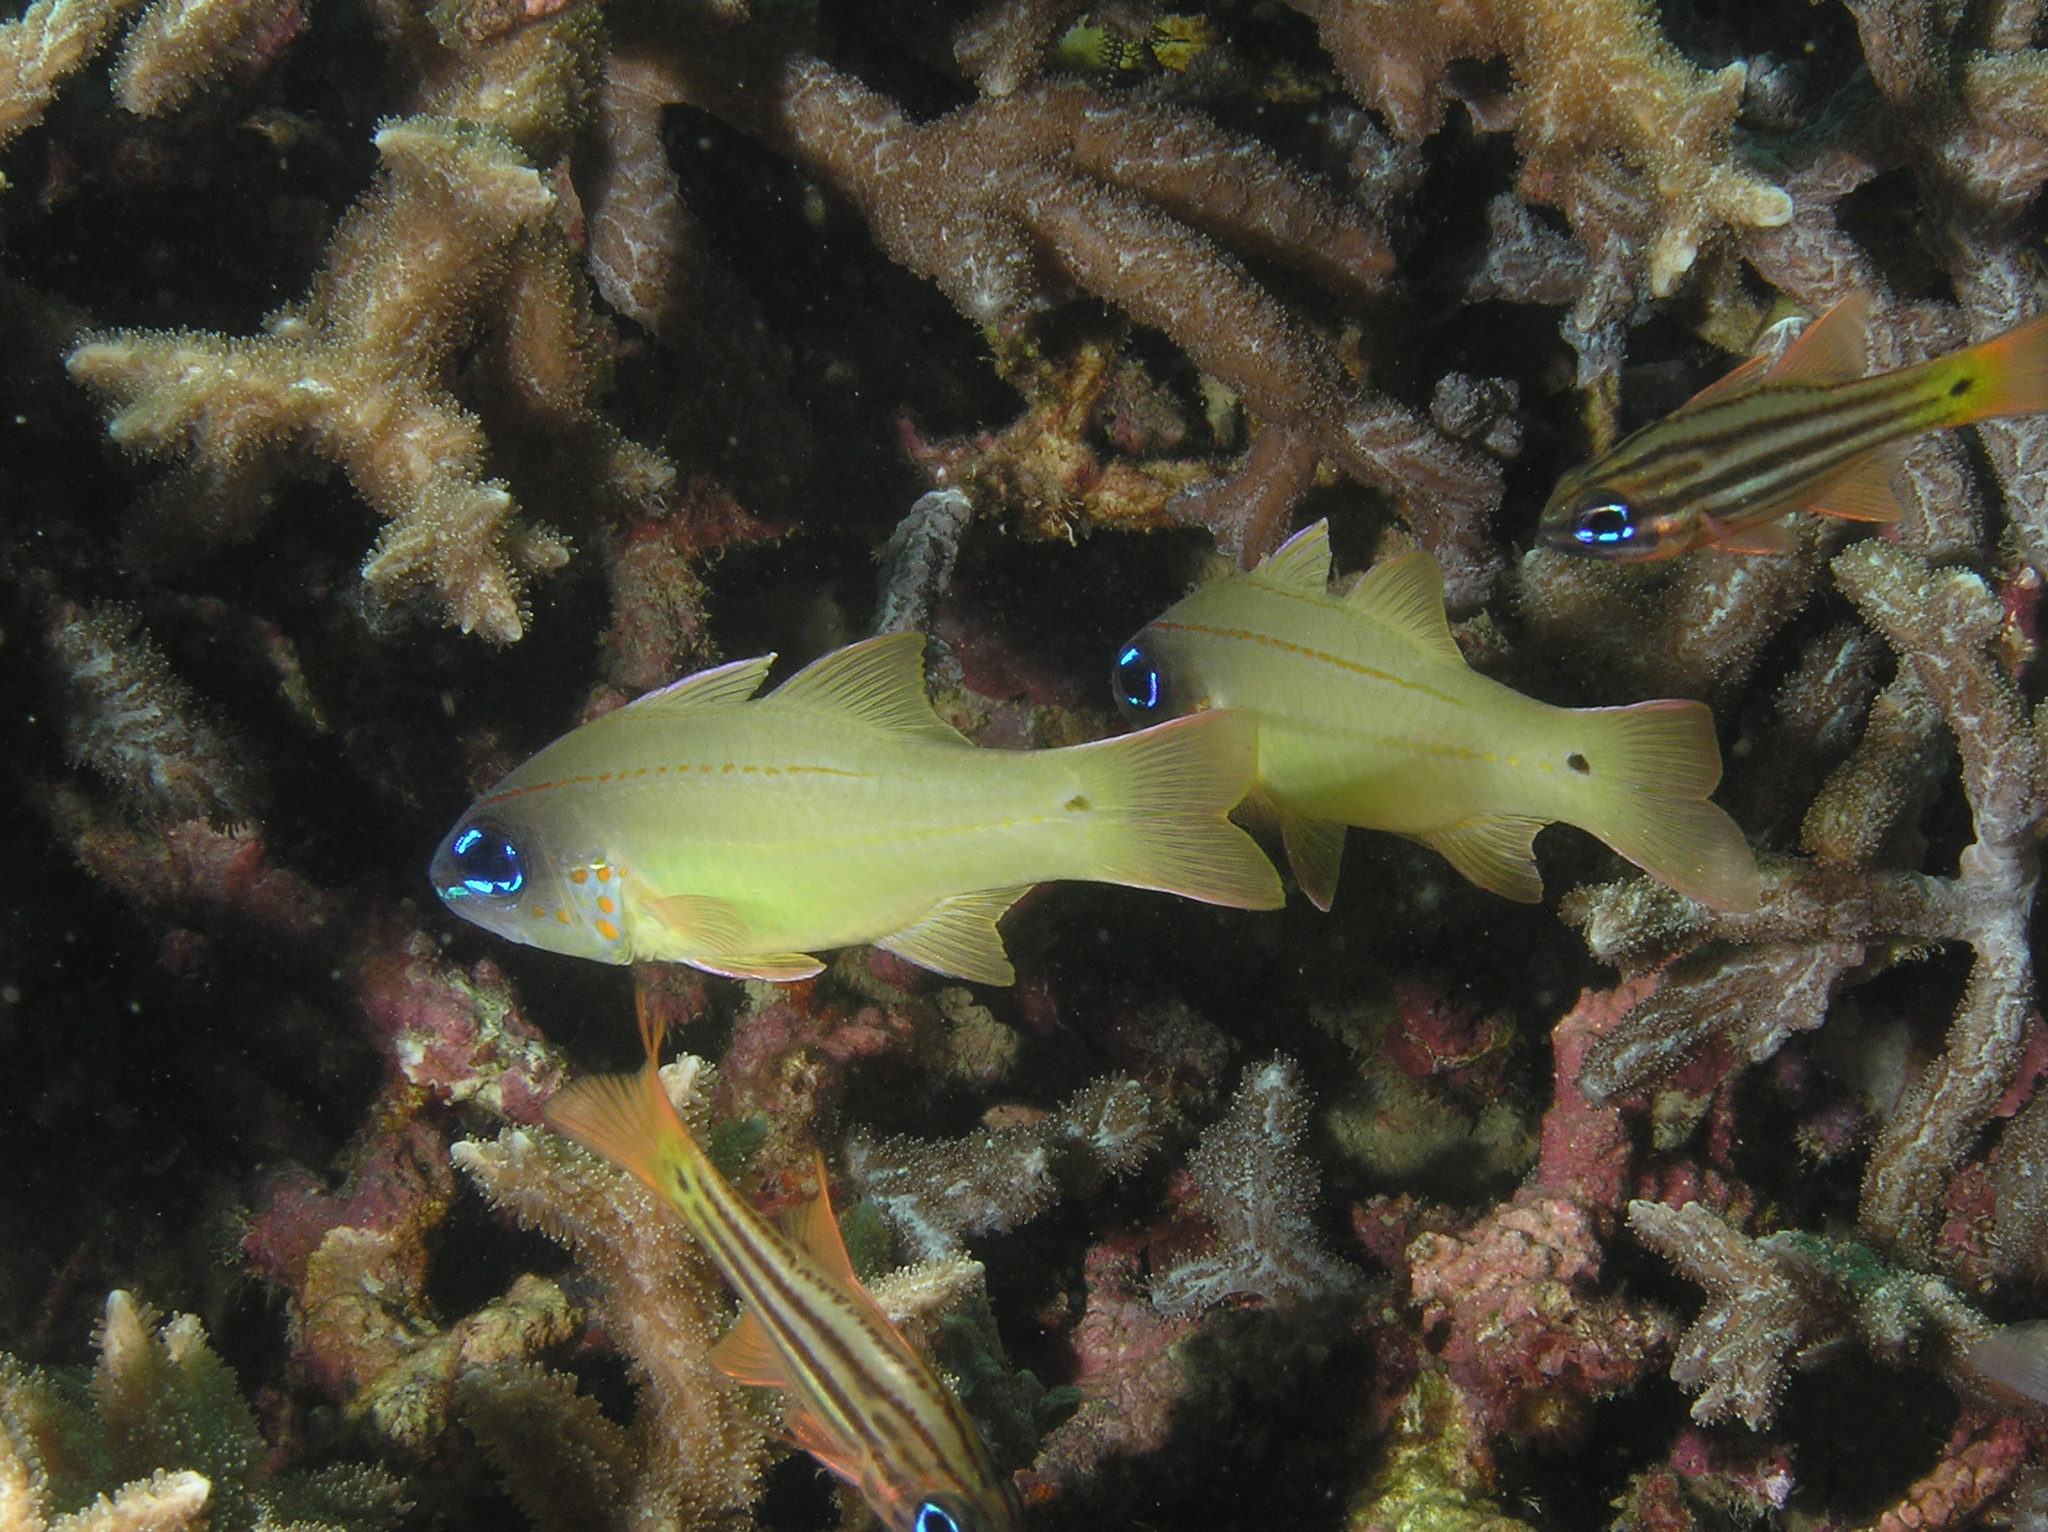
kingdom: Animalia
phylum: Chordata
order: Perciformes
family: Apogonidae
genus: Ostorhinchus
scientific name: Ostorhinchus chrysopomus
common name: Cheek-spot cardinalfish
